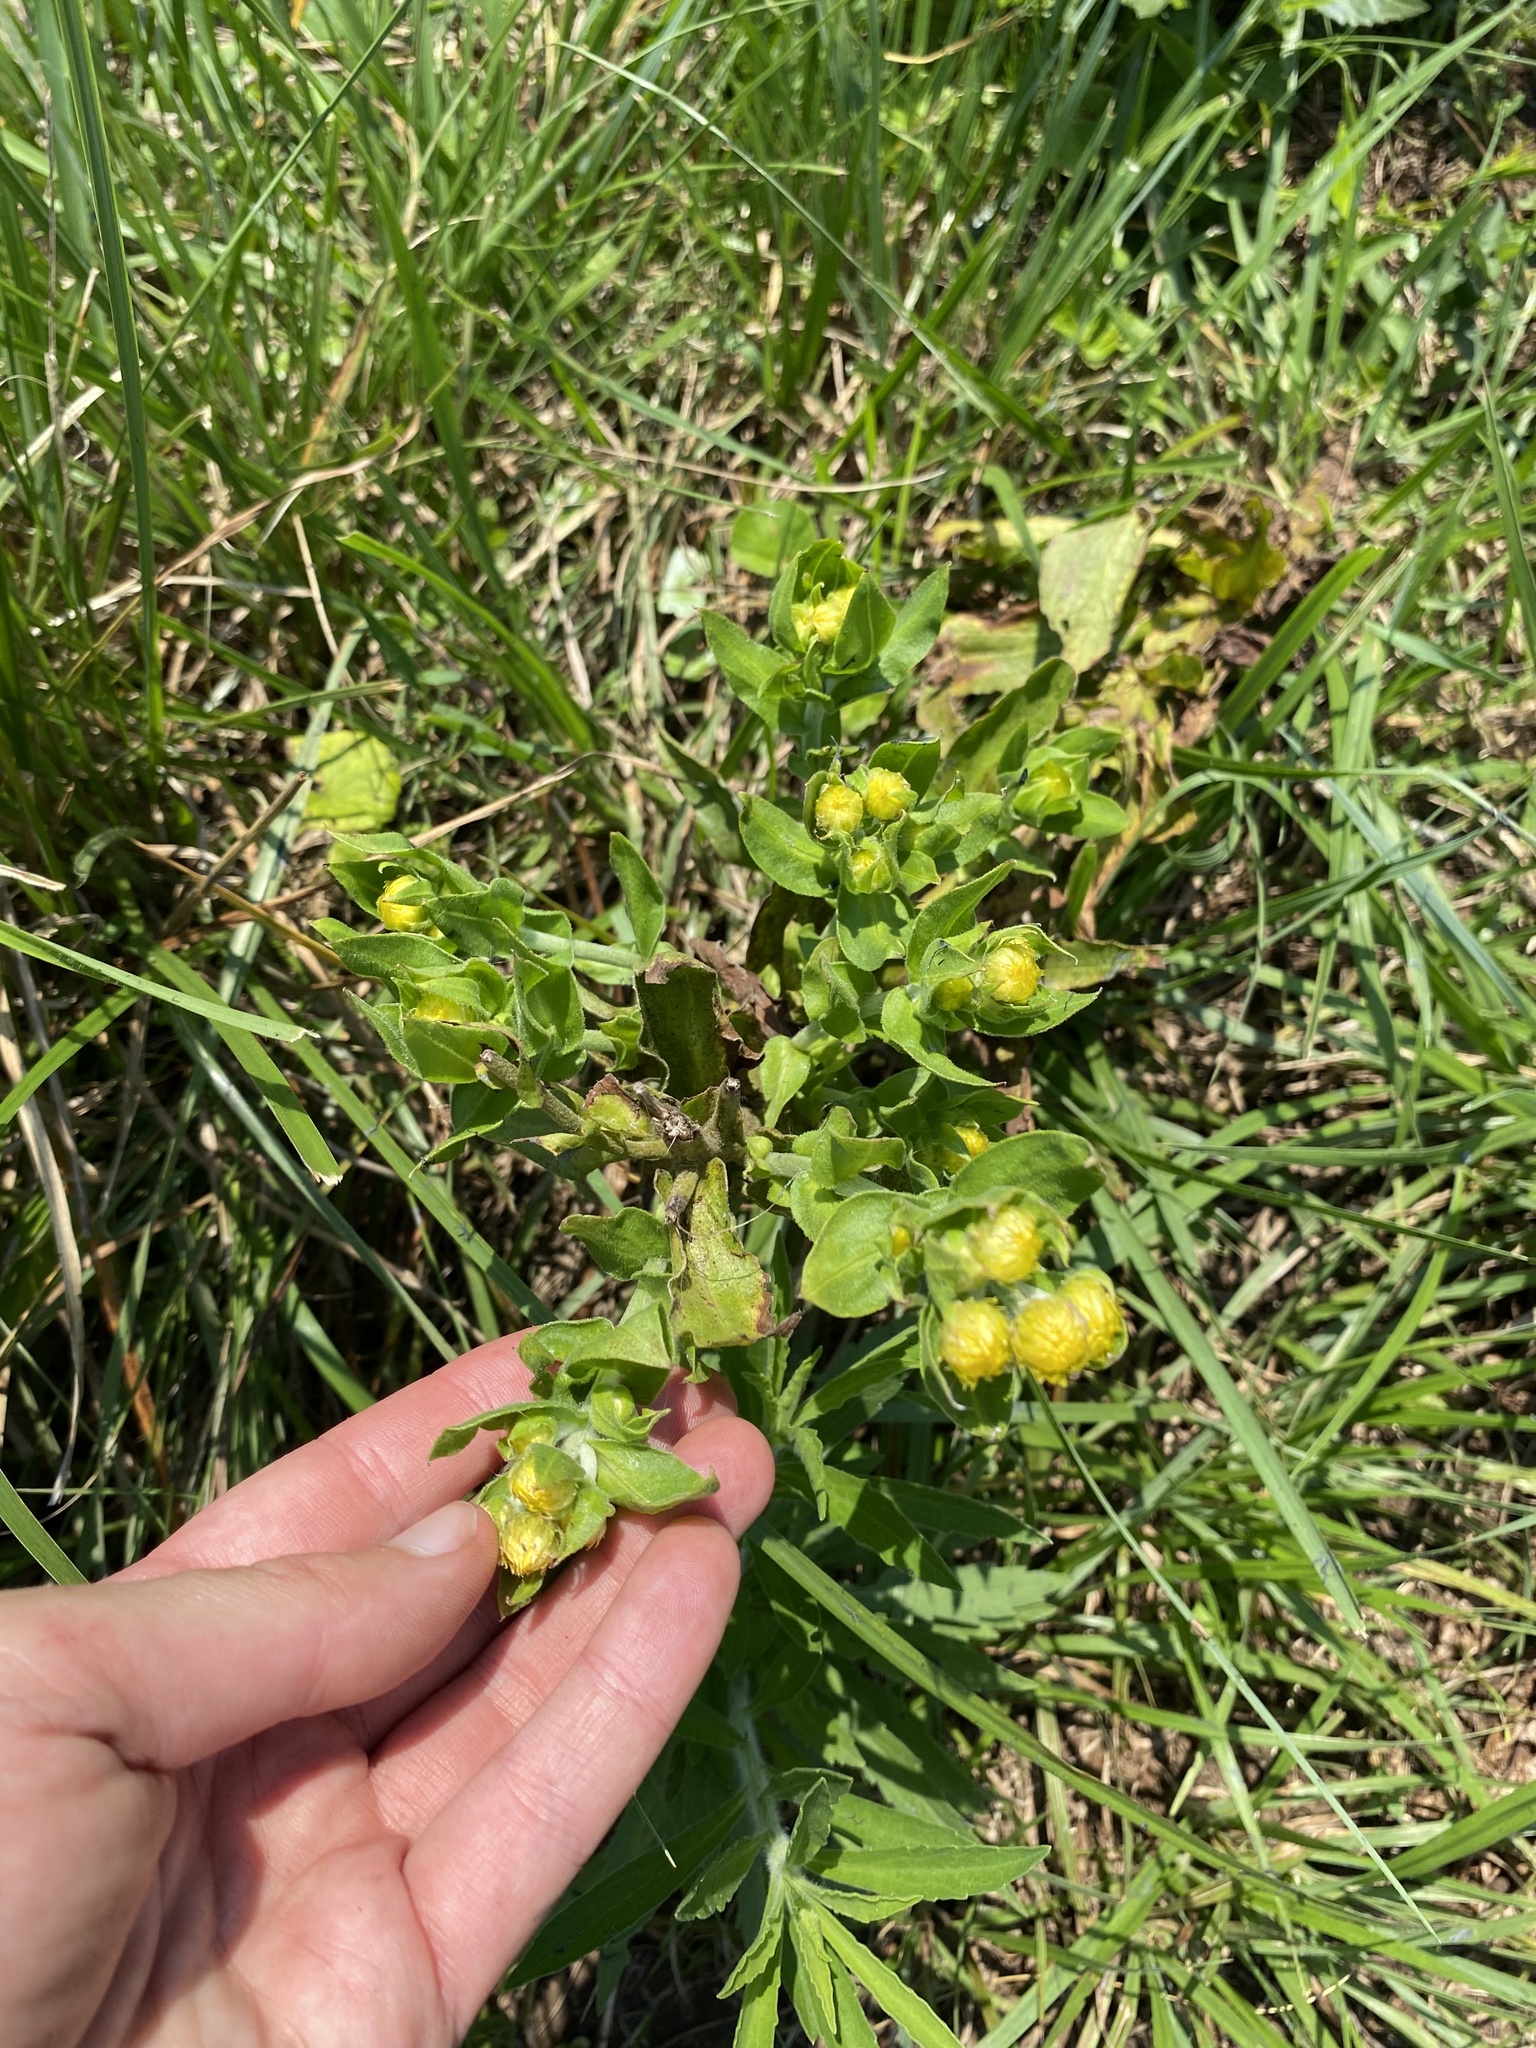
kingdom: Plantae
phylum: Tracheophyta
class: Magnoliopsida
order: Asterales
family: Asteraceae
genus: Helichrysum
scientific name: Helichrysum ruderale
